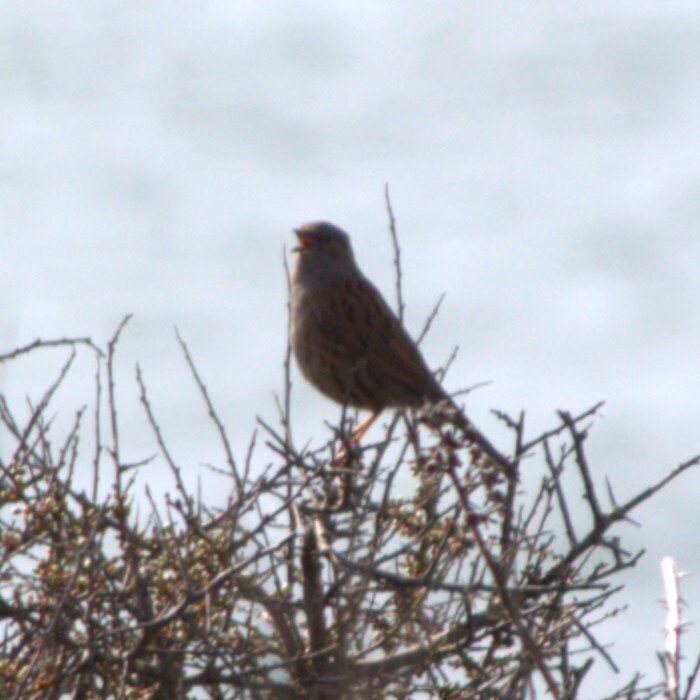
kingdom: Animalia
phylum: Chordata
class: Aves
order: Passeriformes
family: Prunellidae
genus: Prunella
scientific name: Prunella modularis
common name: Dunnock
